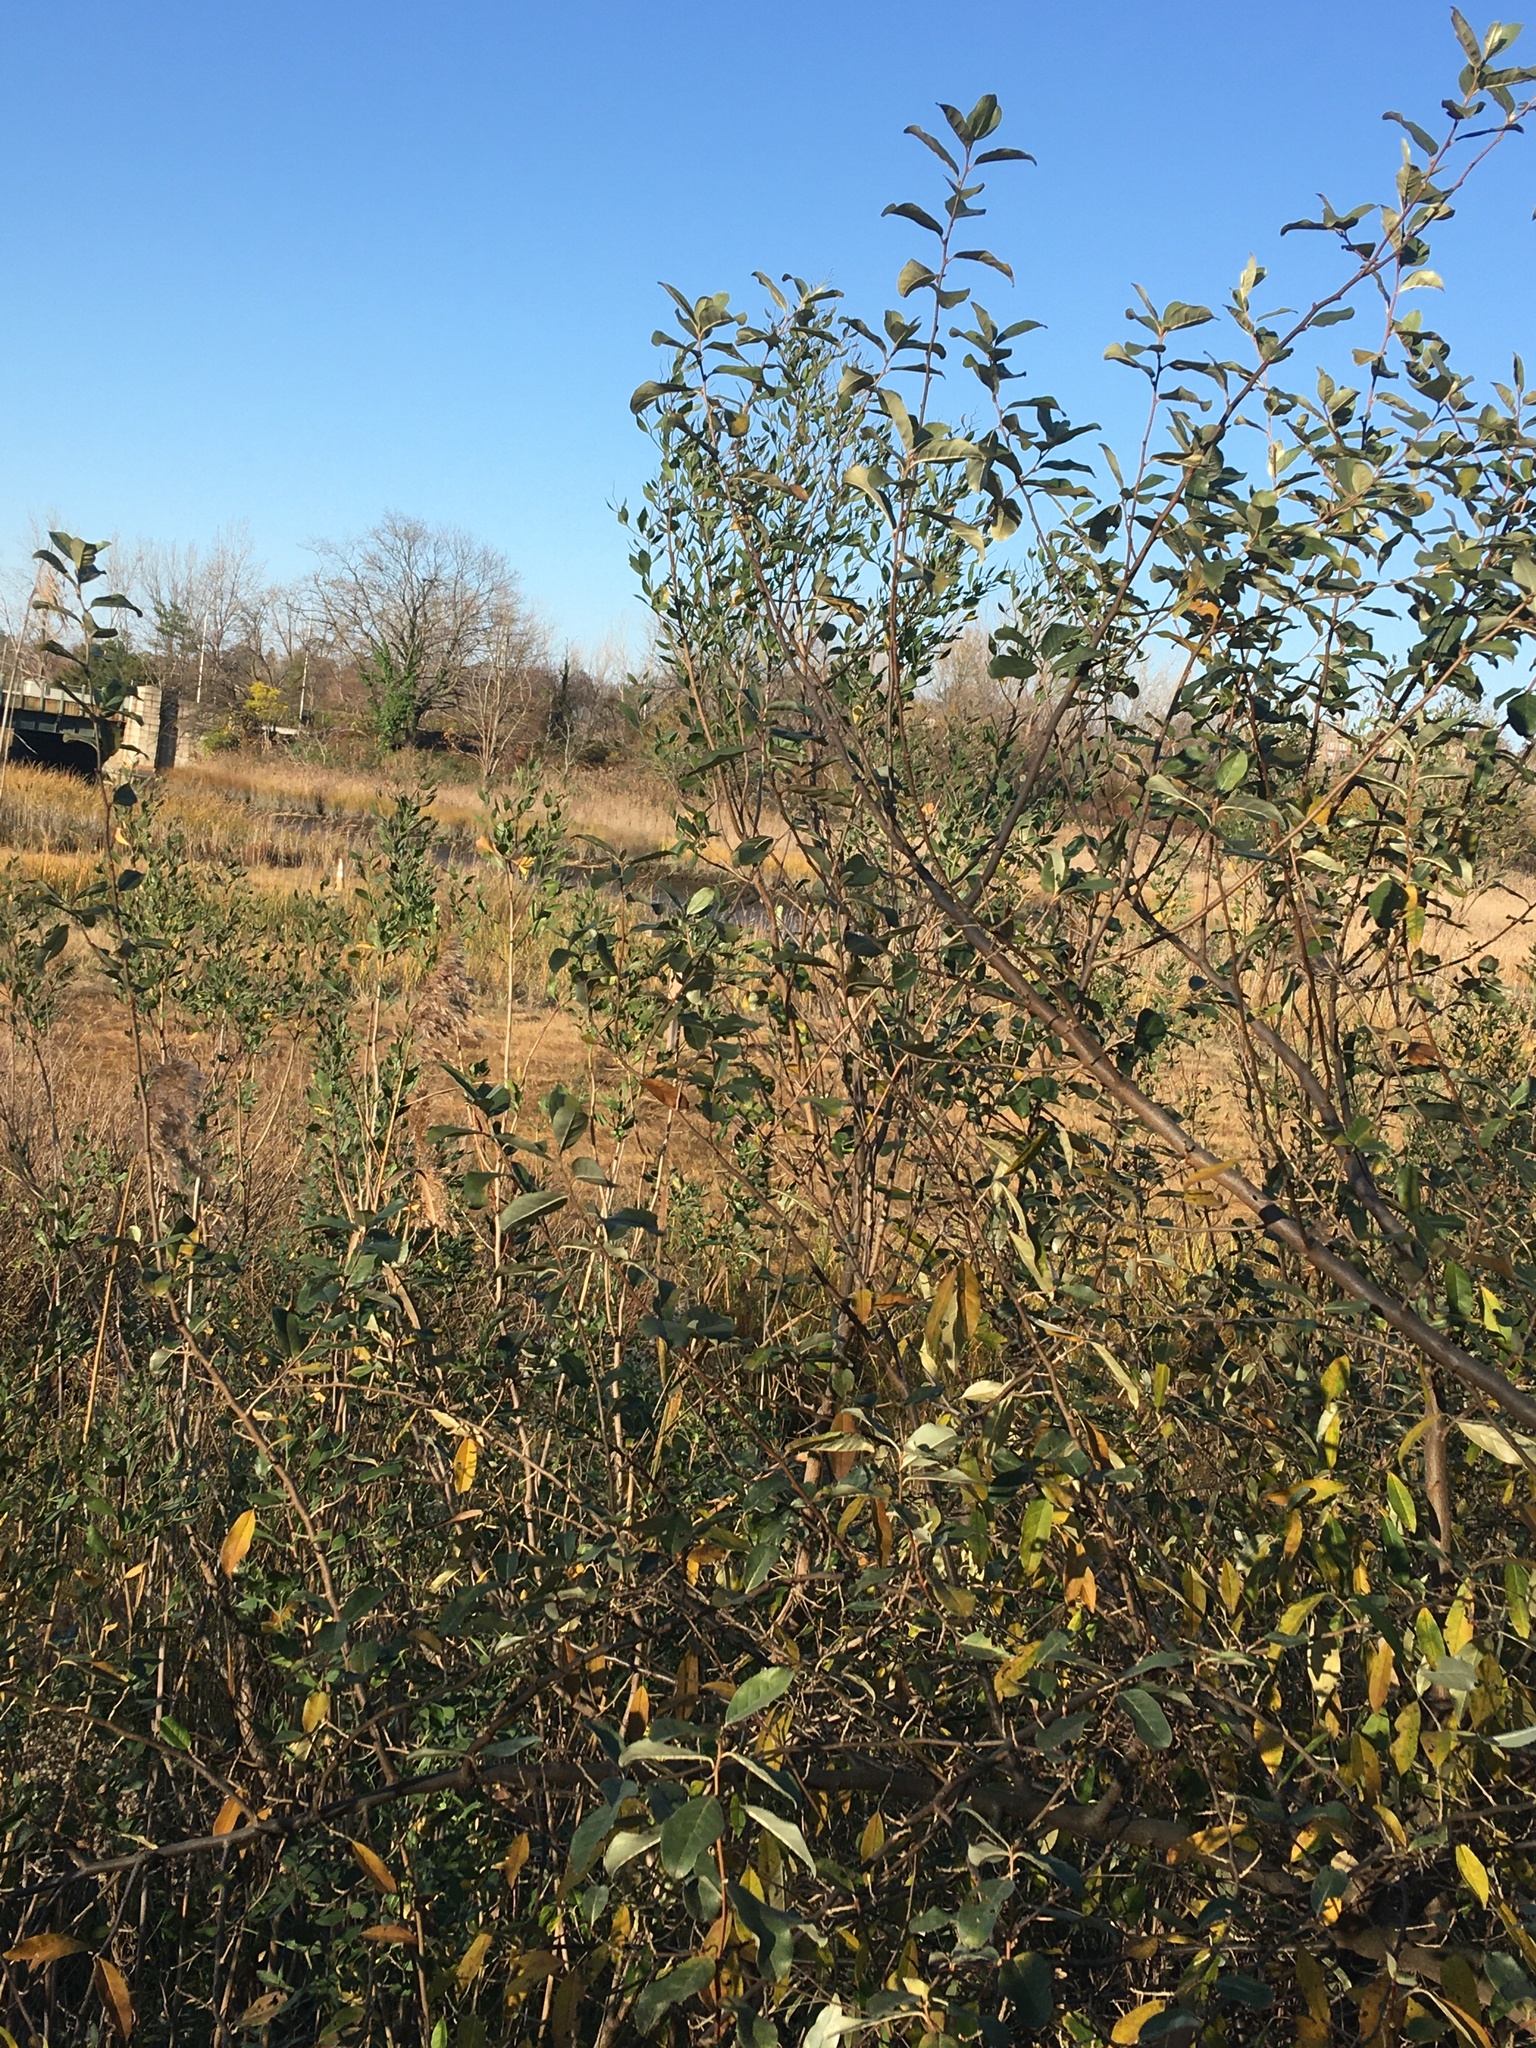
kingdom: Plantae
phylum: Tracheophyta
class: Magnoliopsida
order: Asterales
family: Asteraceae
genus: Baccharis
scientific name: Baccharis halimifolia
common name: Eastern baccharis
